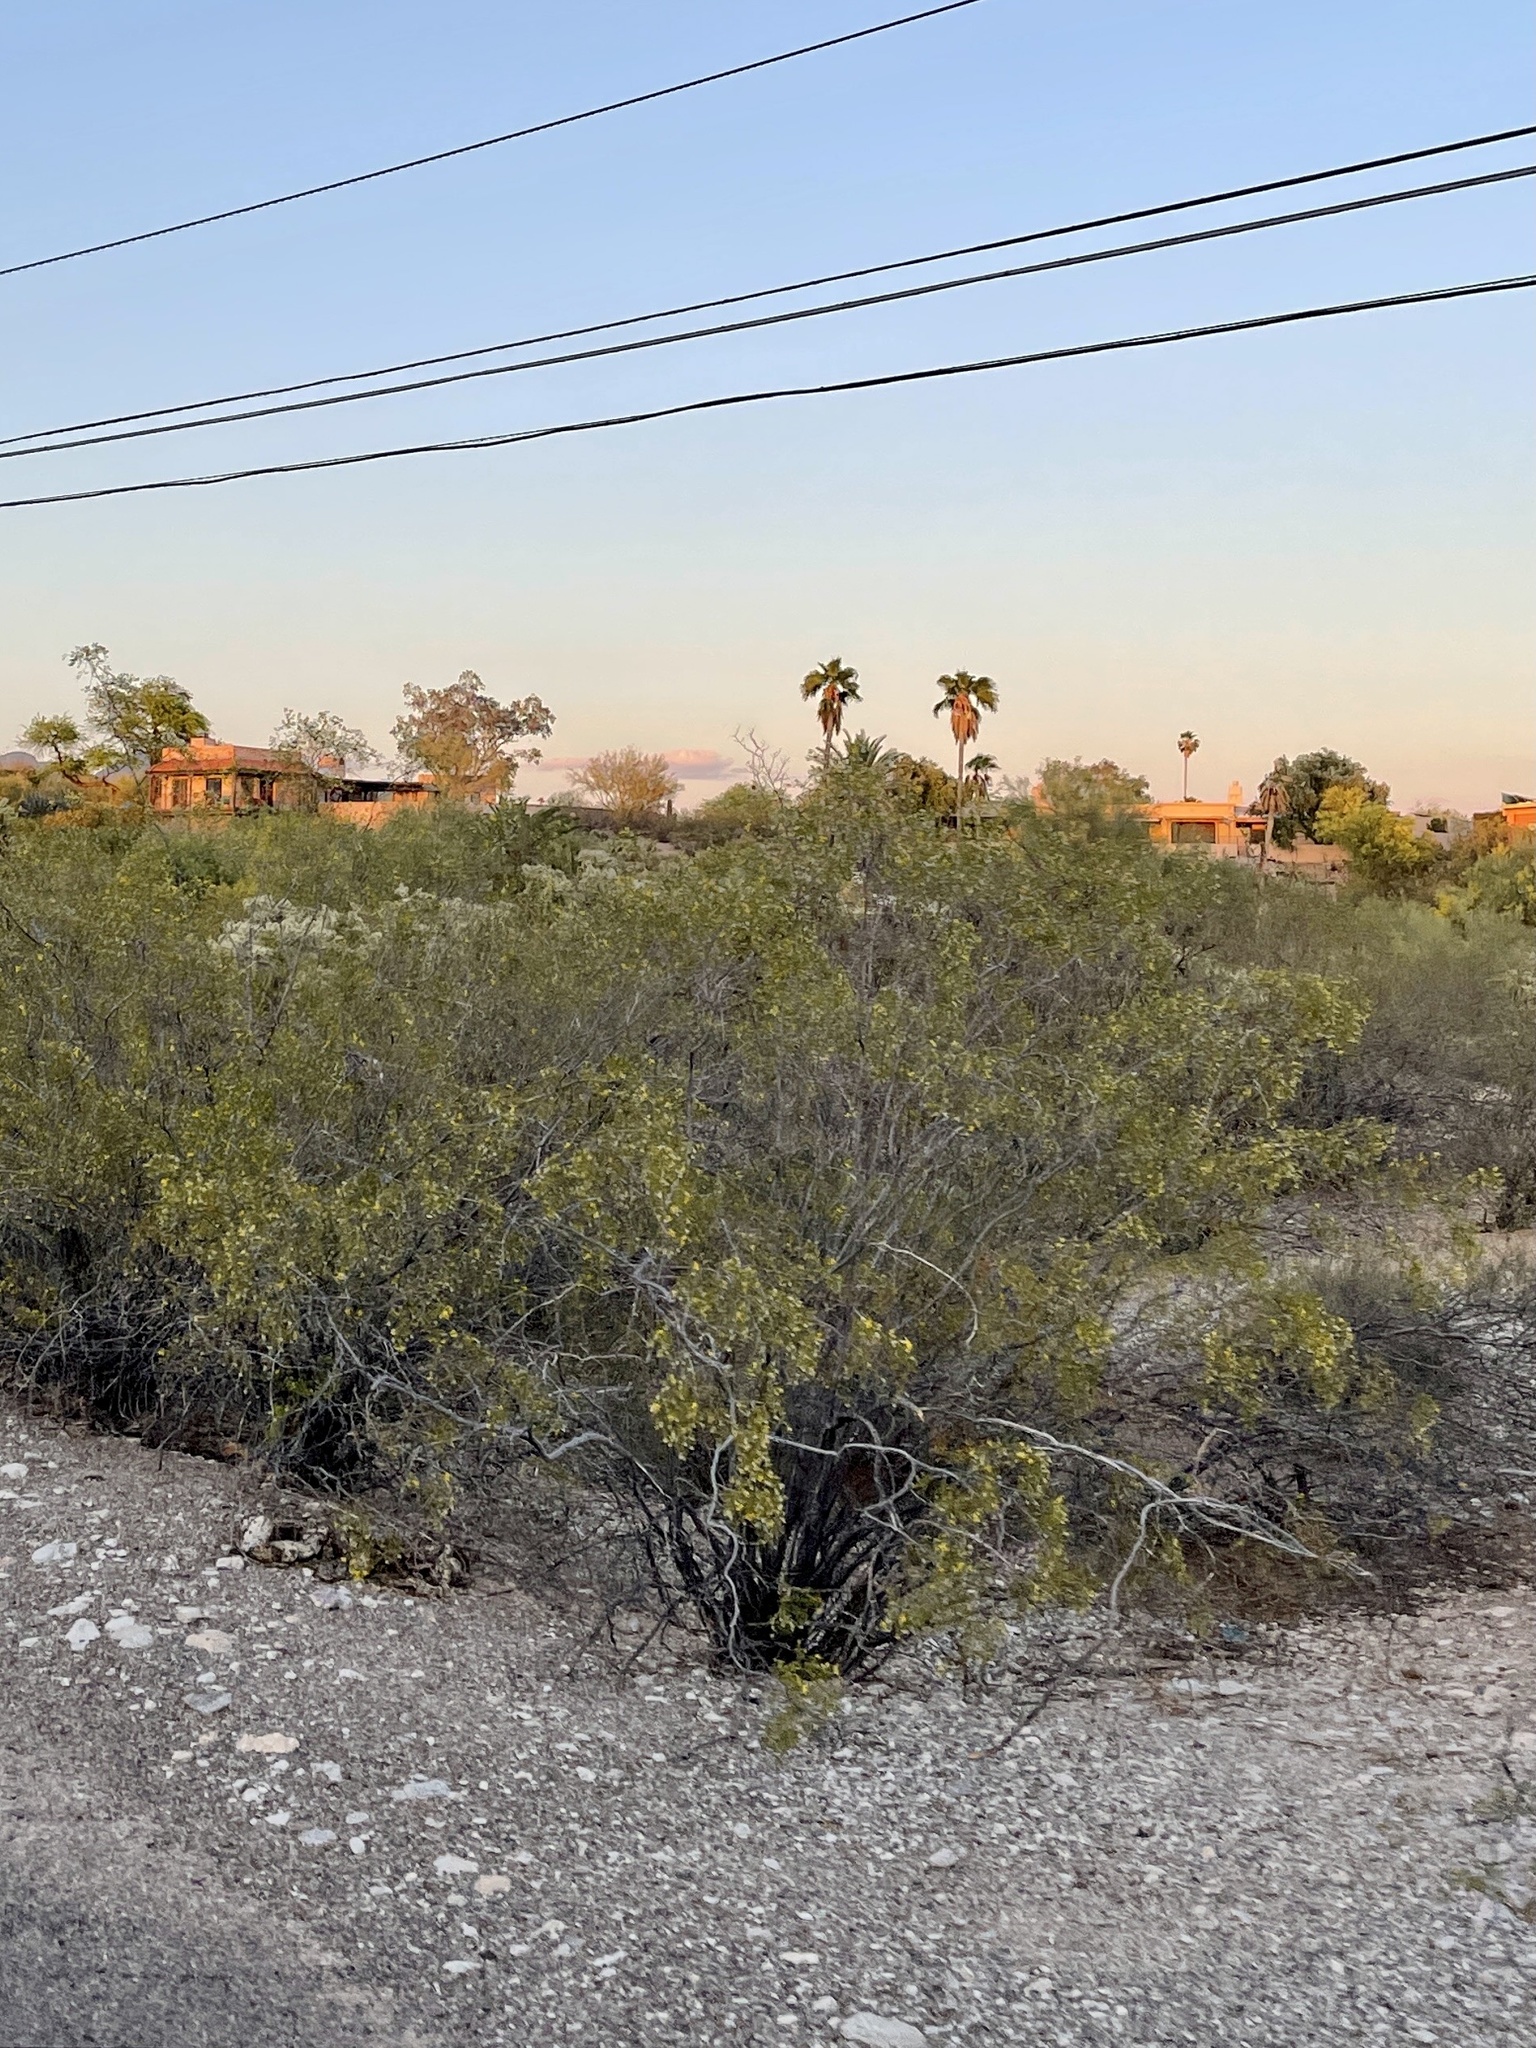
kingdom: Plantae
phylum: Tracheophyta
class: Magnoliopsida
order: Zygophyllales
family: Zygophyllaceae
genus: Larrea
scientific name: Larrea tridentata
